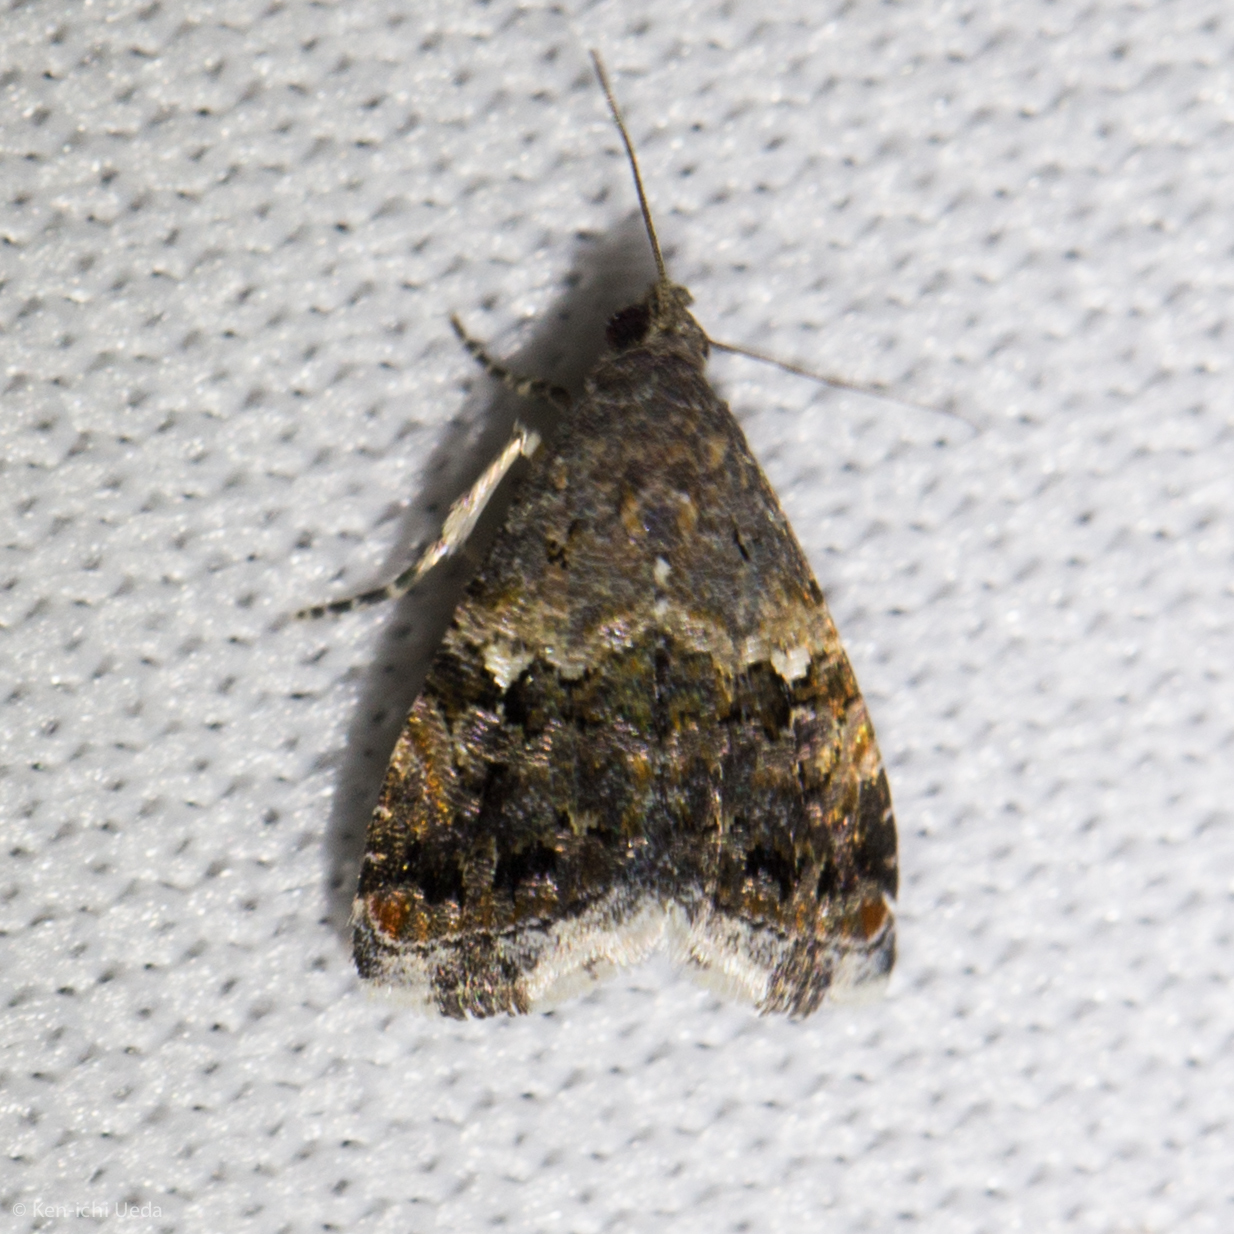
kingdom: Animalia
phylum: Arthropoda
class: Insecta
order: Lepidoptera
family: Noctuidae
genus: Tripudia
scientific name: Tripudia luxuriosa
